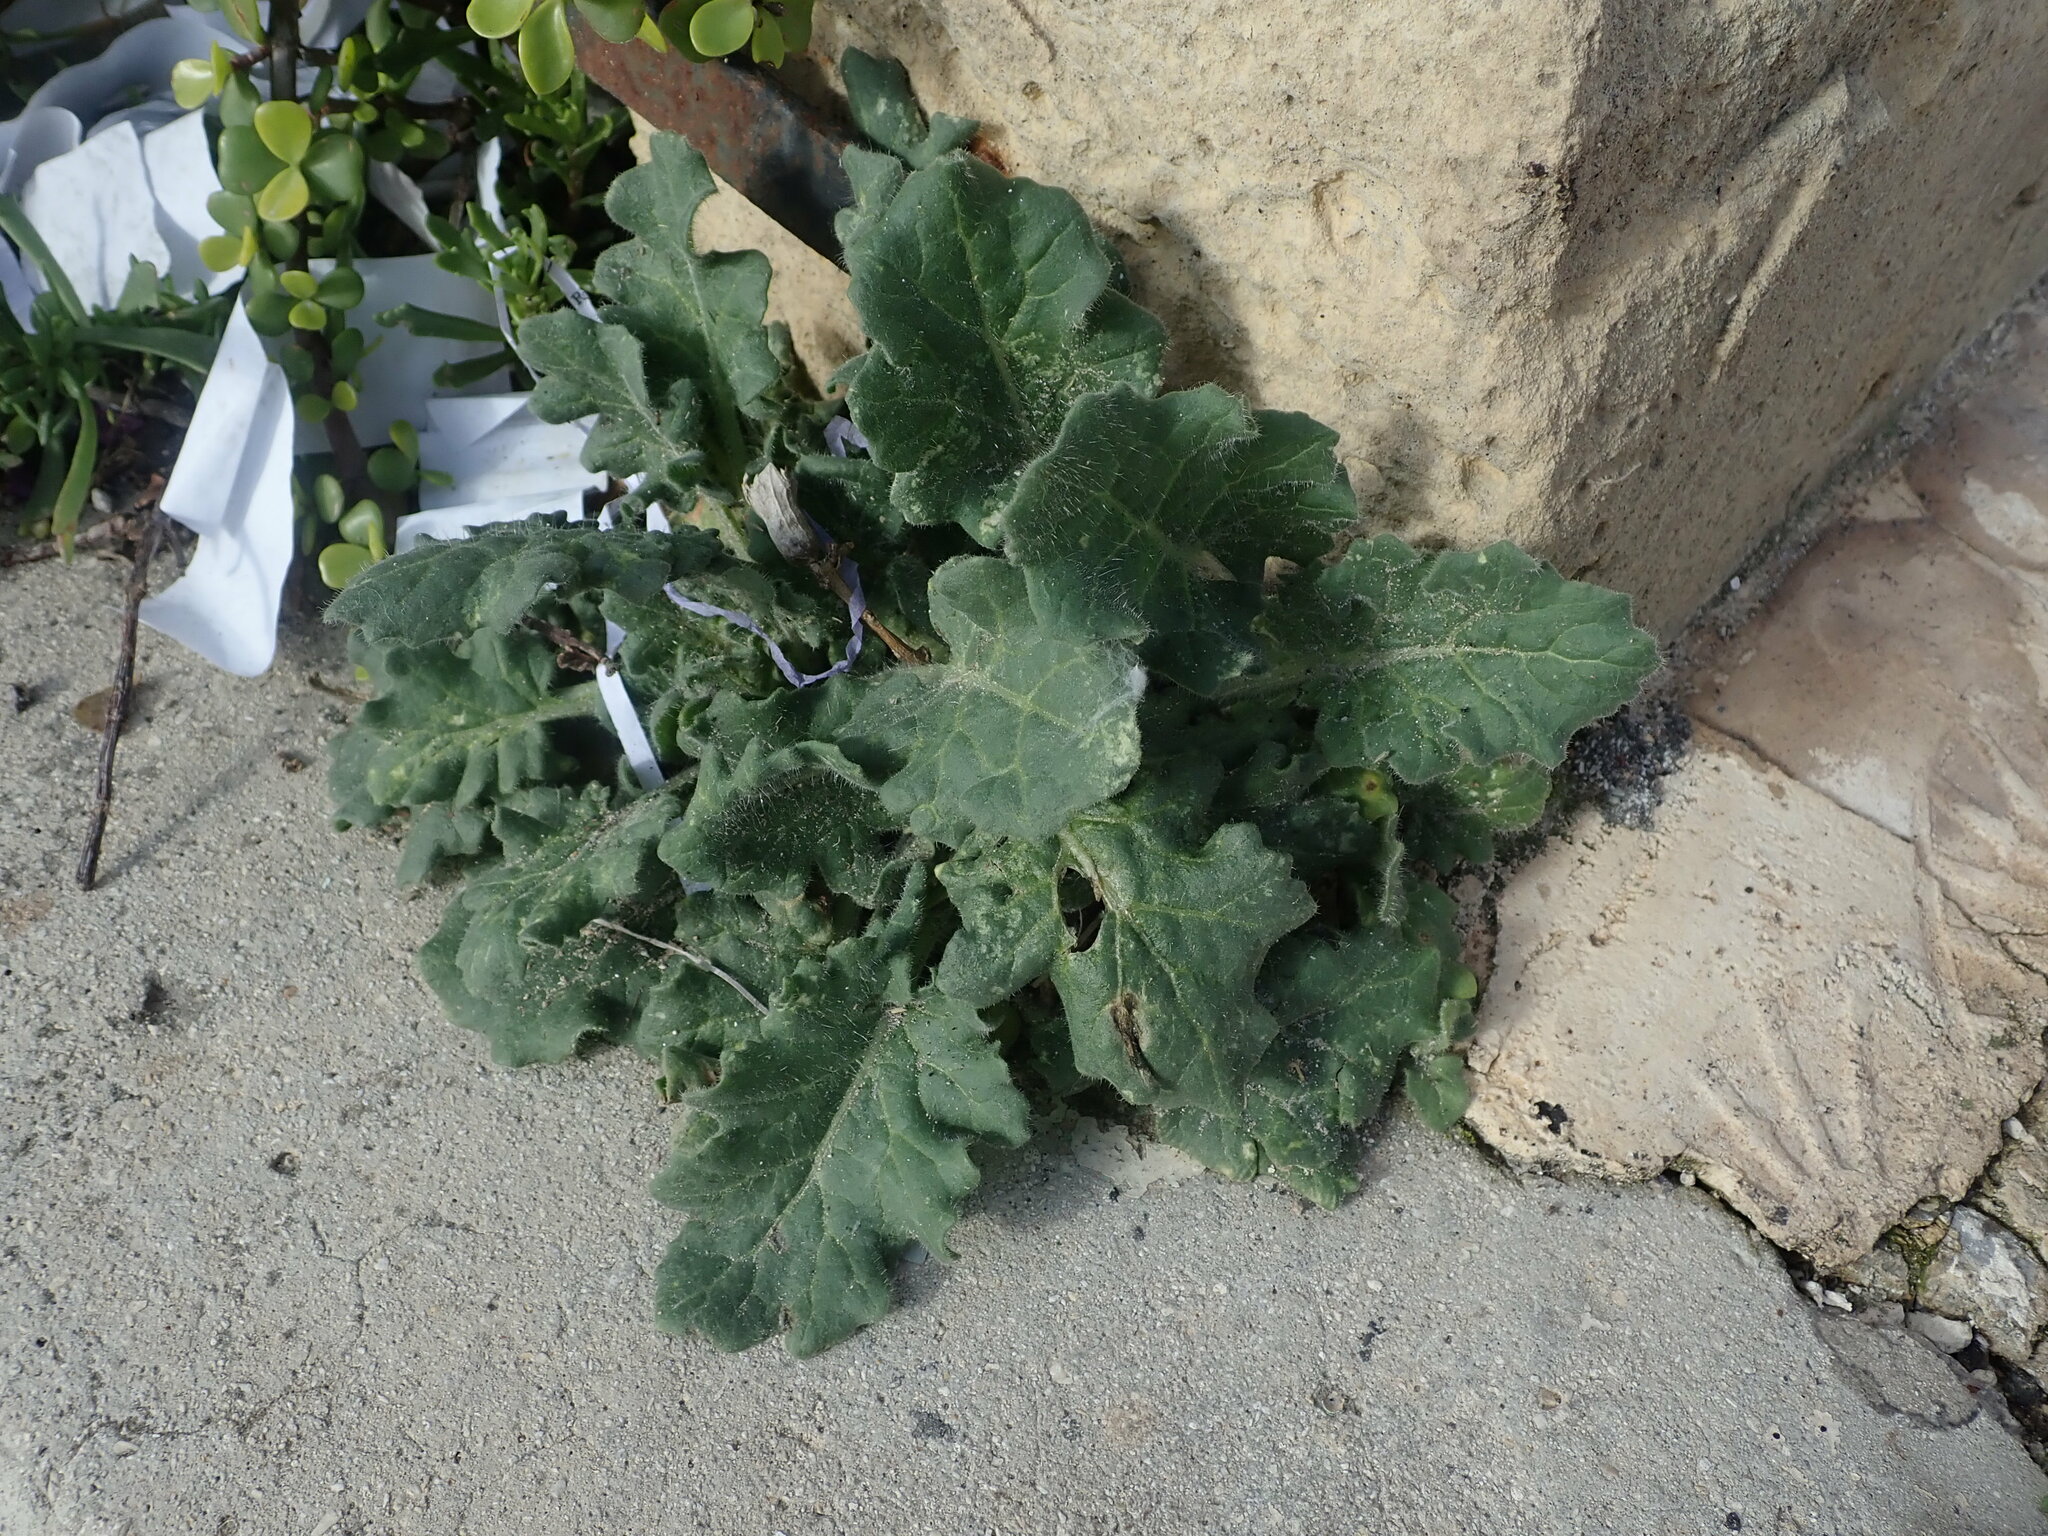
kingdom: Plantae
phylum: Tracheophyta
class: Magnoliopsida
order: Solanales
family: Solanaceae
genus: Hyoscyamus
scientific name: Hyoscyamus albus
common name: White henbane
